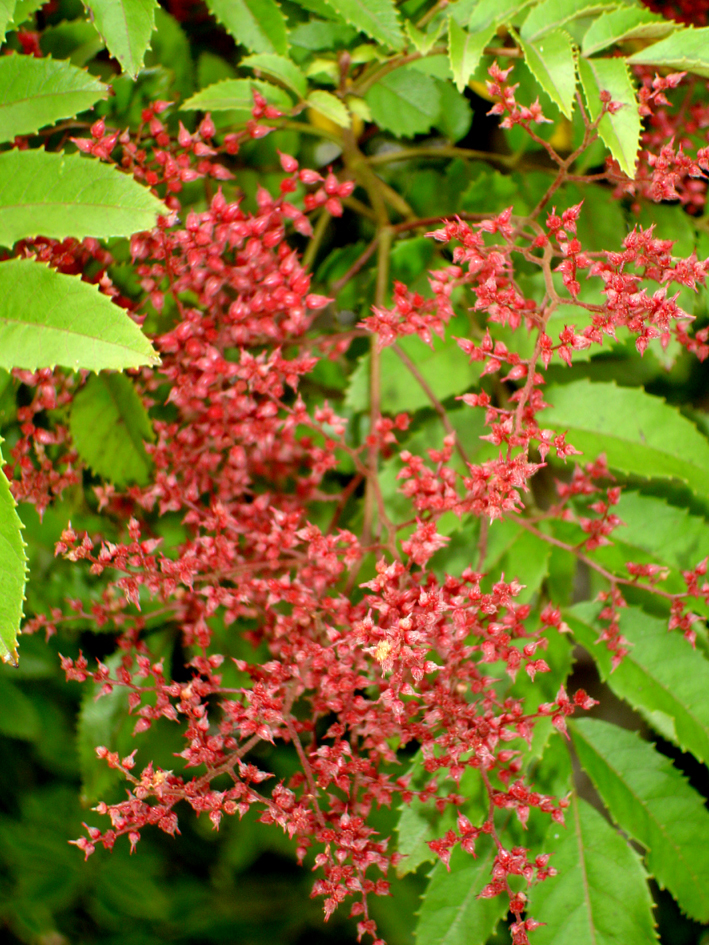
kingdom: Plantae
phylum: Tracheophyta
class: Magnoliopsida
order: Oxalidales
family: Cunoniaceae
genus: Ackama
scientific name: Ackama rosifolia
